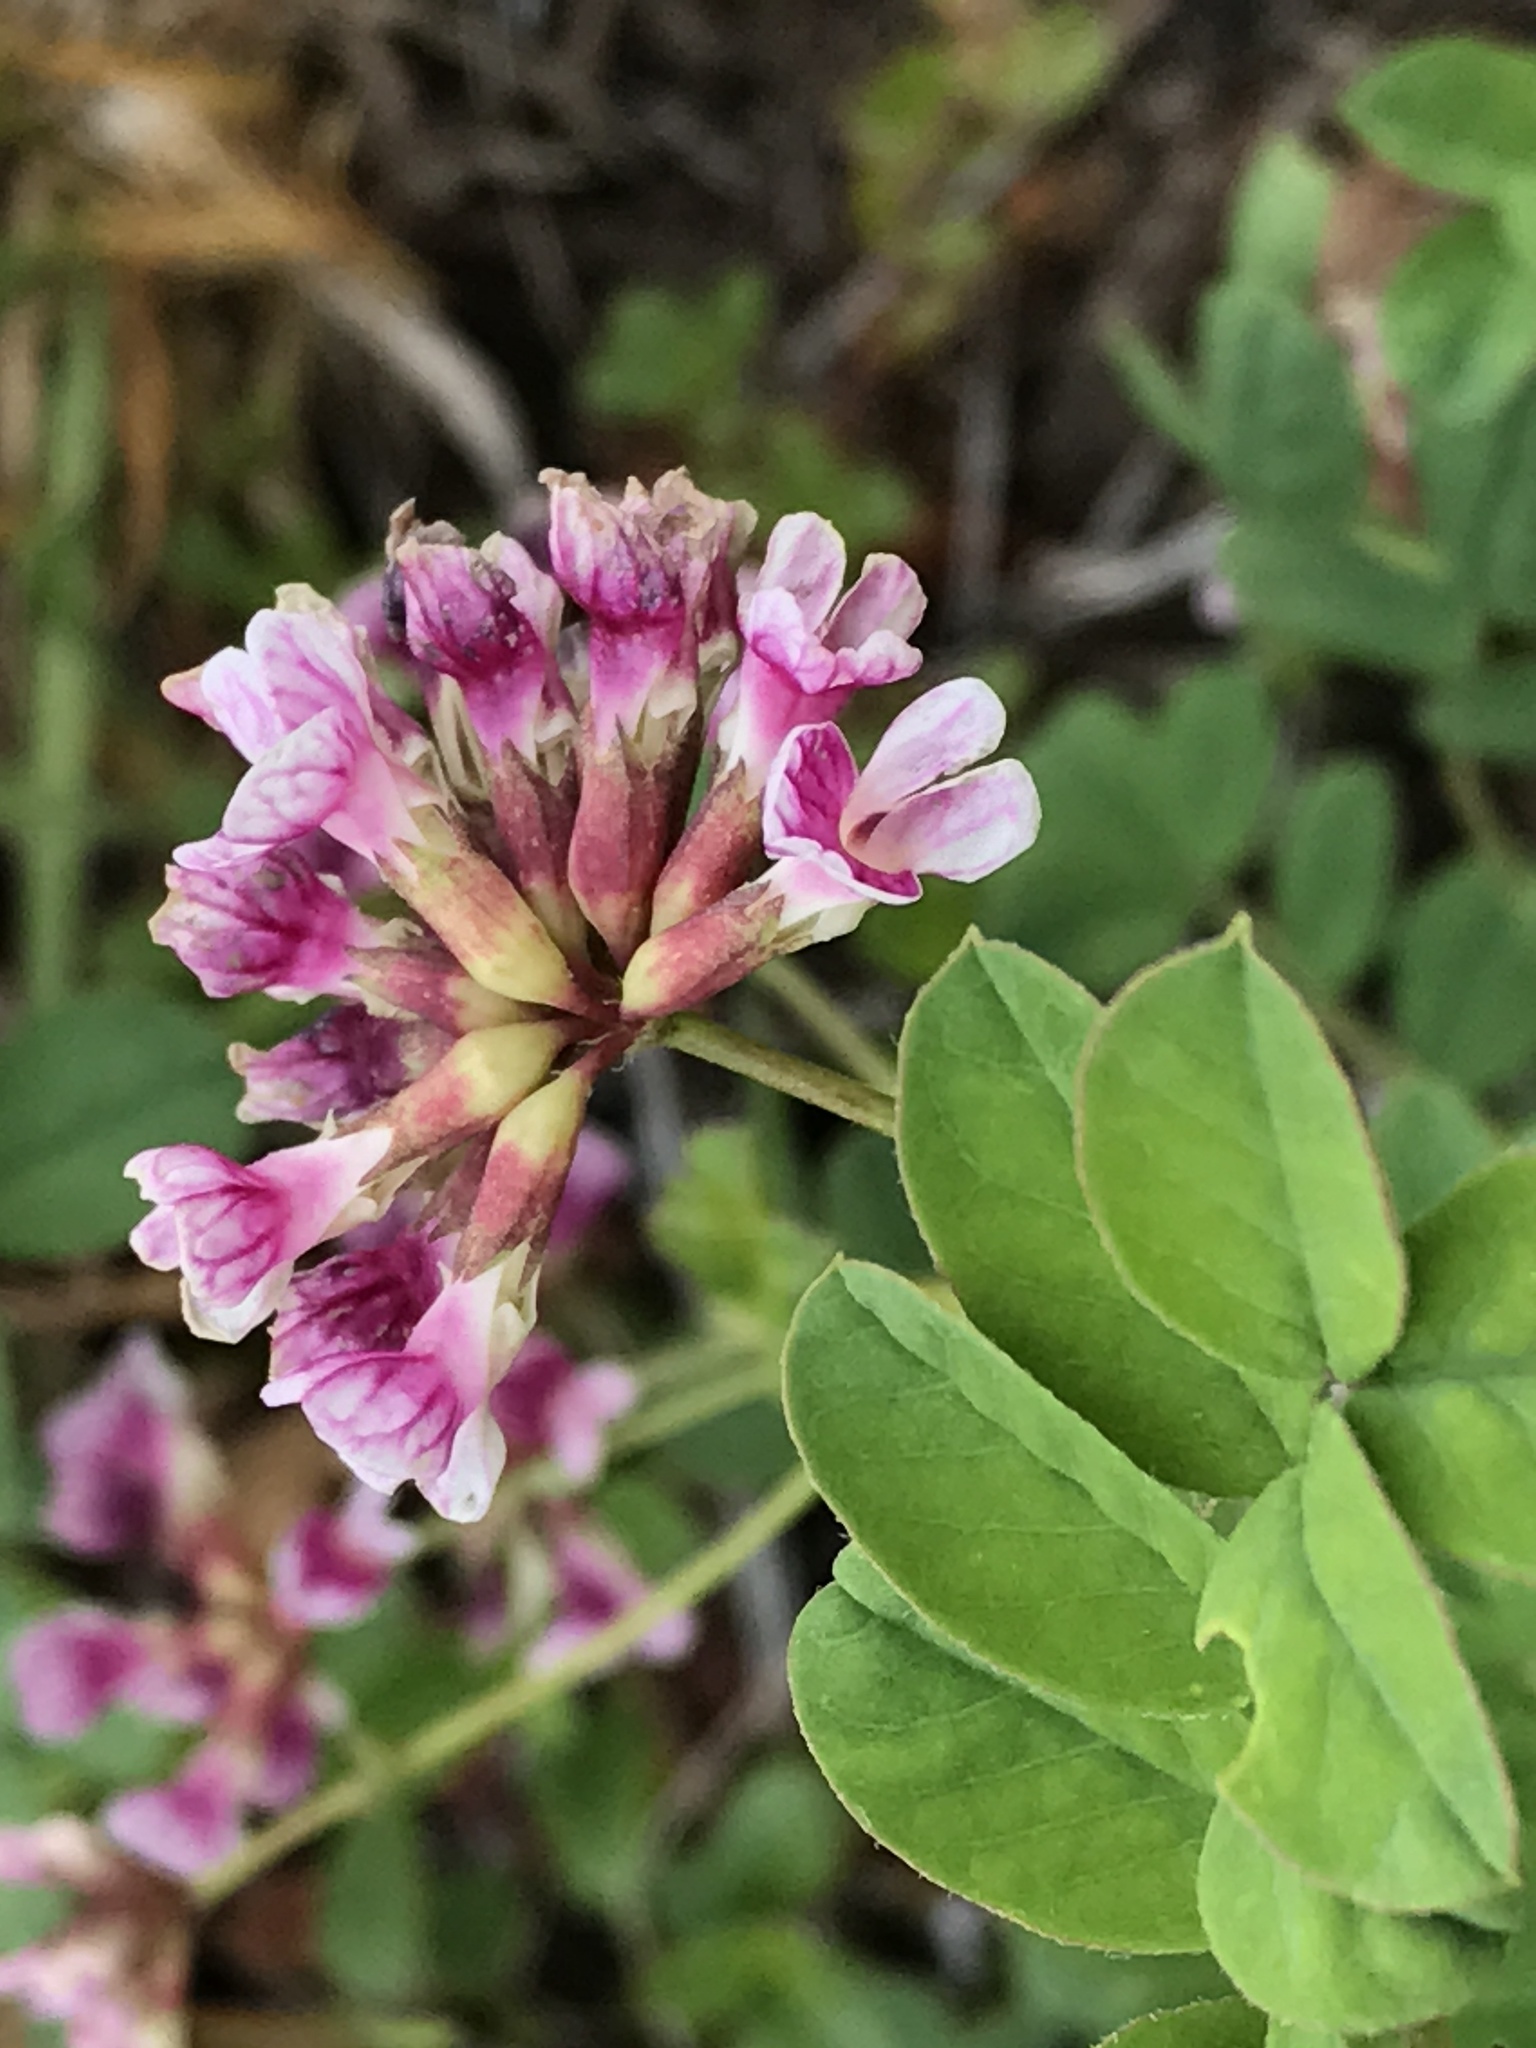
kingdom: Plantae
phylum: Tracheophyta
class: Magnoliopsida
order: Fabales
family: Fabaceae
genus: Hosackia
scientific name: Hosackia rosea
